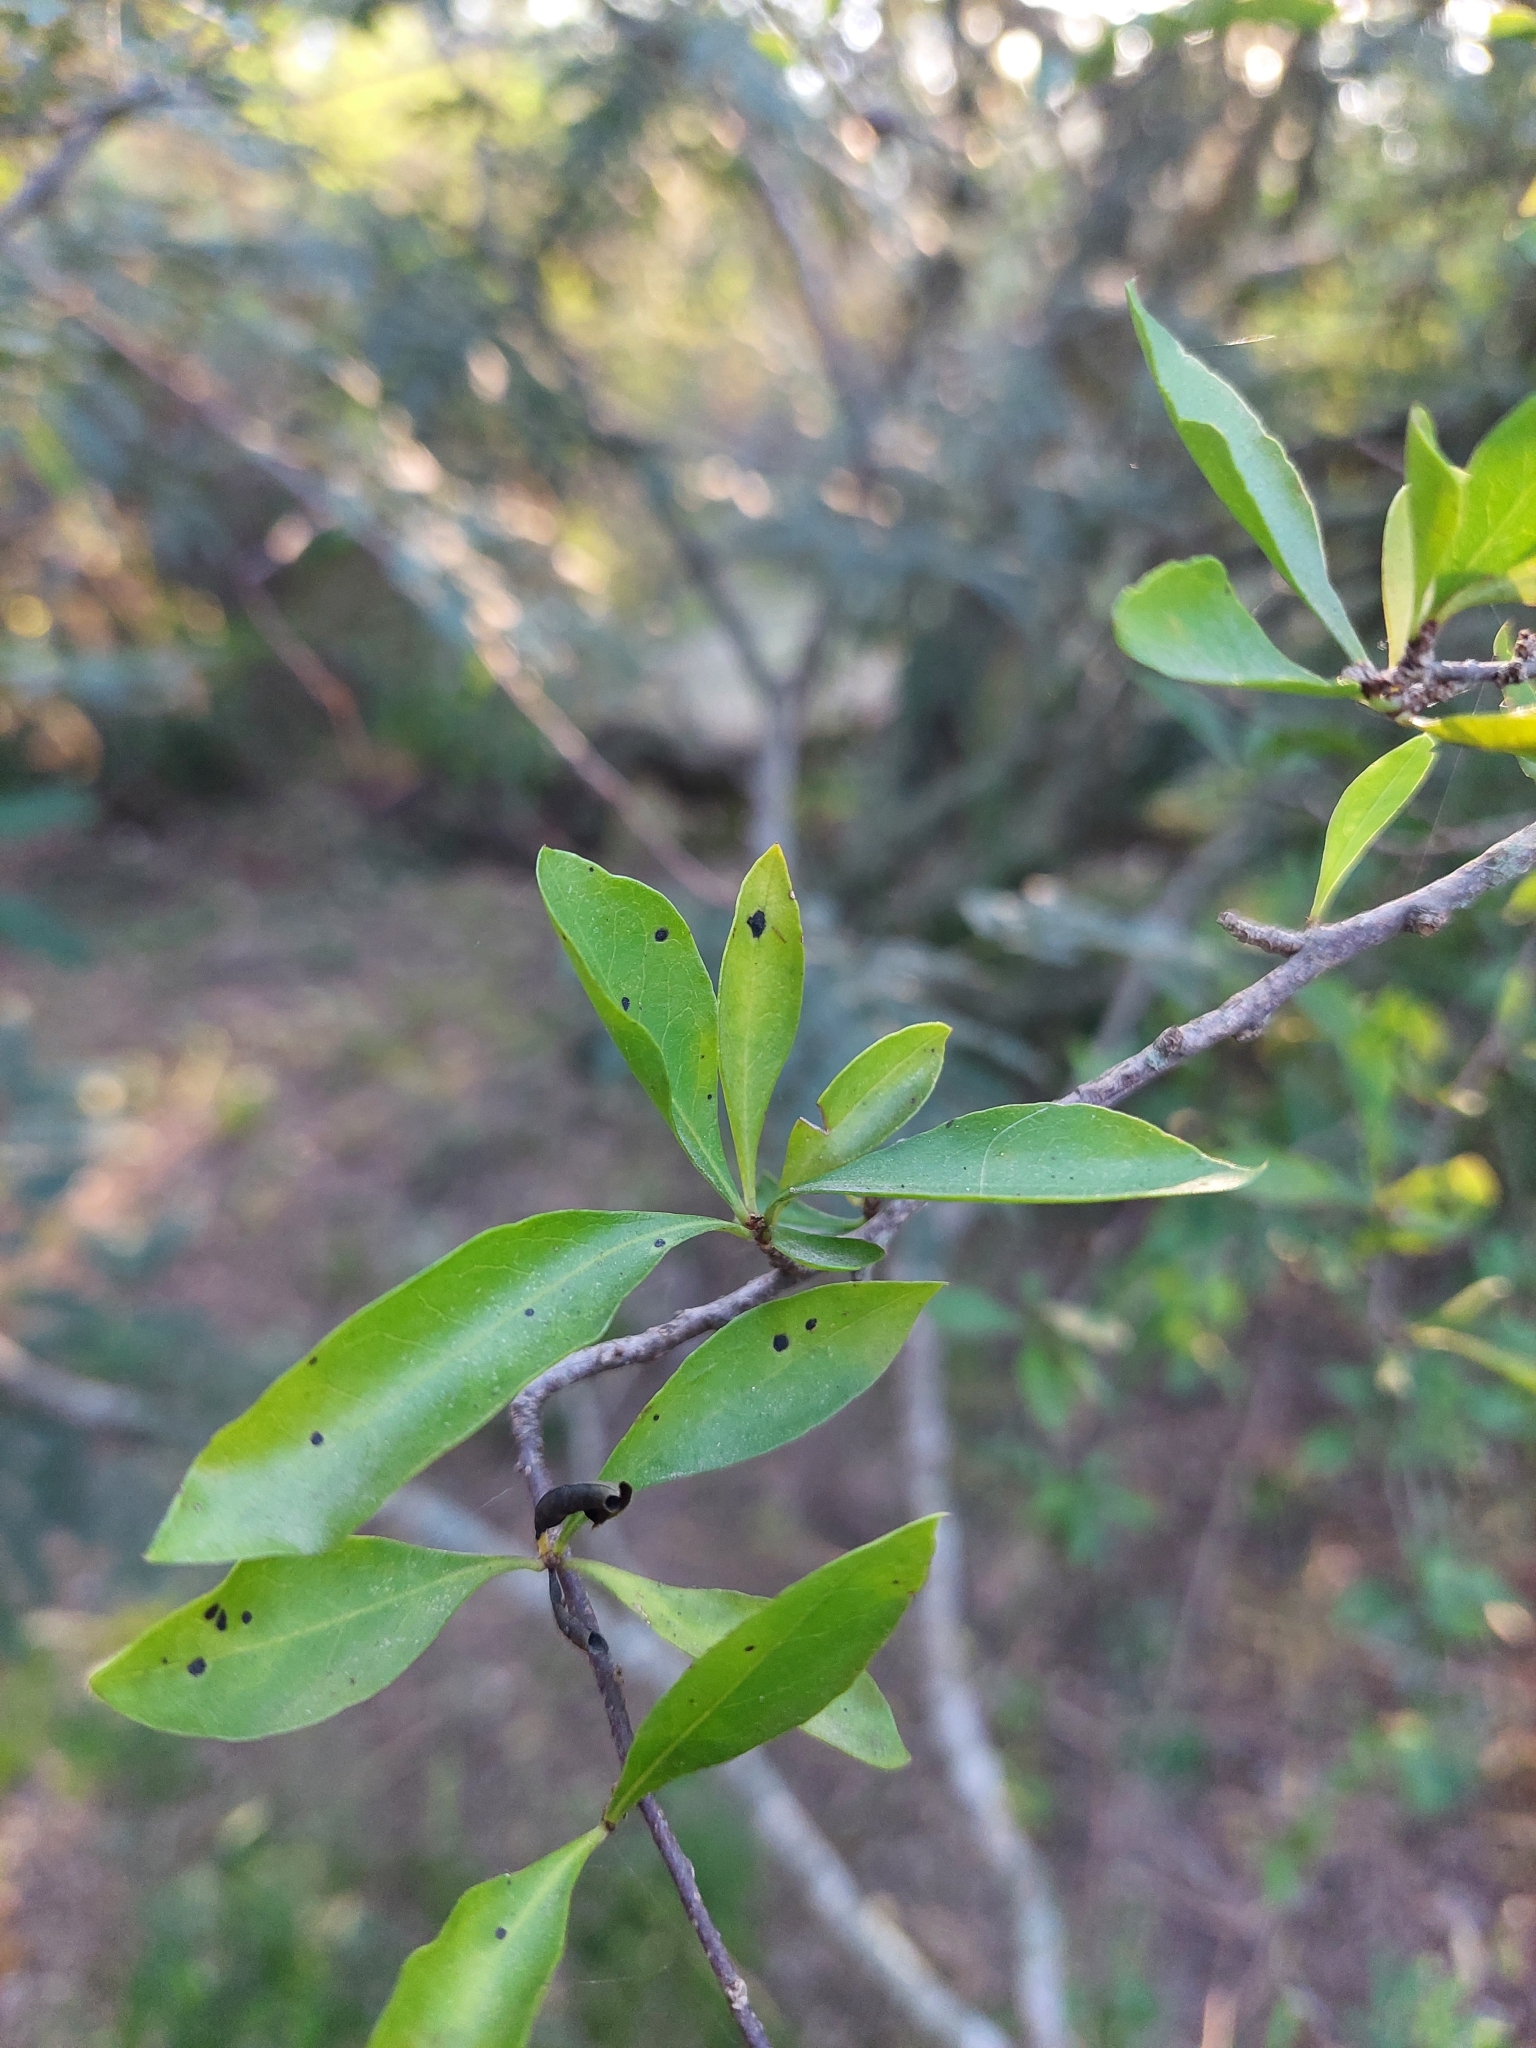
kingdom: Plantae
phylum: Tracheophyta
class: Magnoliopsida
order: Caryophyllales
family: Achatocarpaceae
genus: Achatocarpus
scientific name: Achatocarpus praecox
